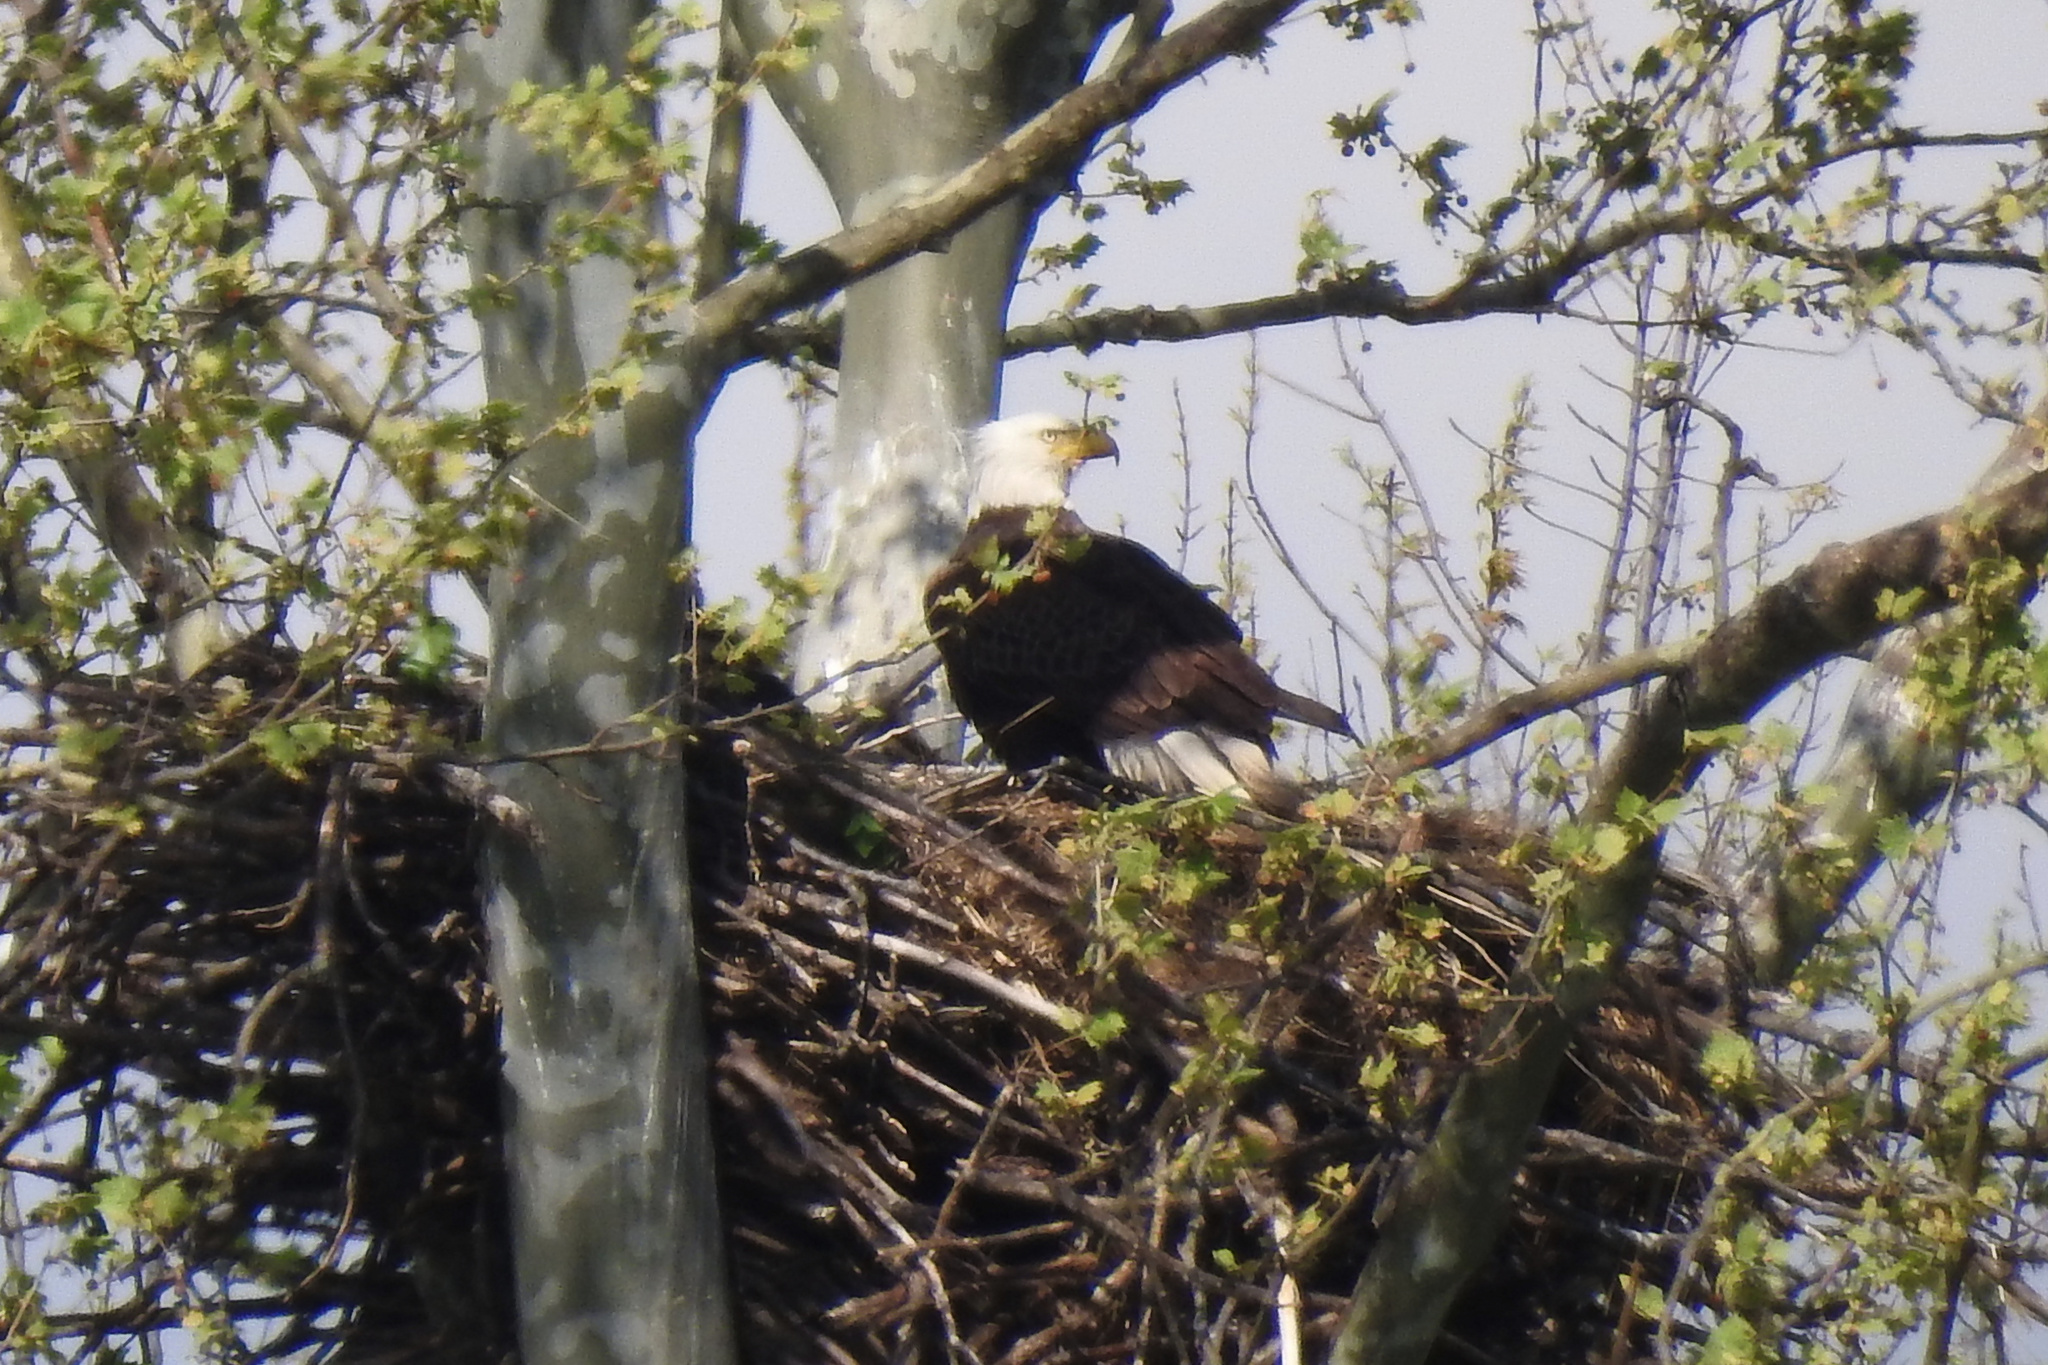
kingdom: Animalia
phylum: Chordata
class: Aves
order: Accipitriformes
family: Accipitridae
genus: Haliaeetus
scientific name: Haliaeetus leucocephalus
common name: Bald eagle
